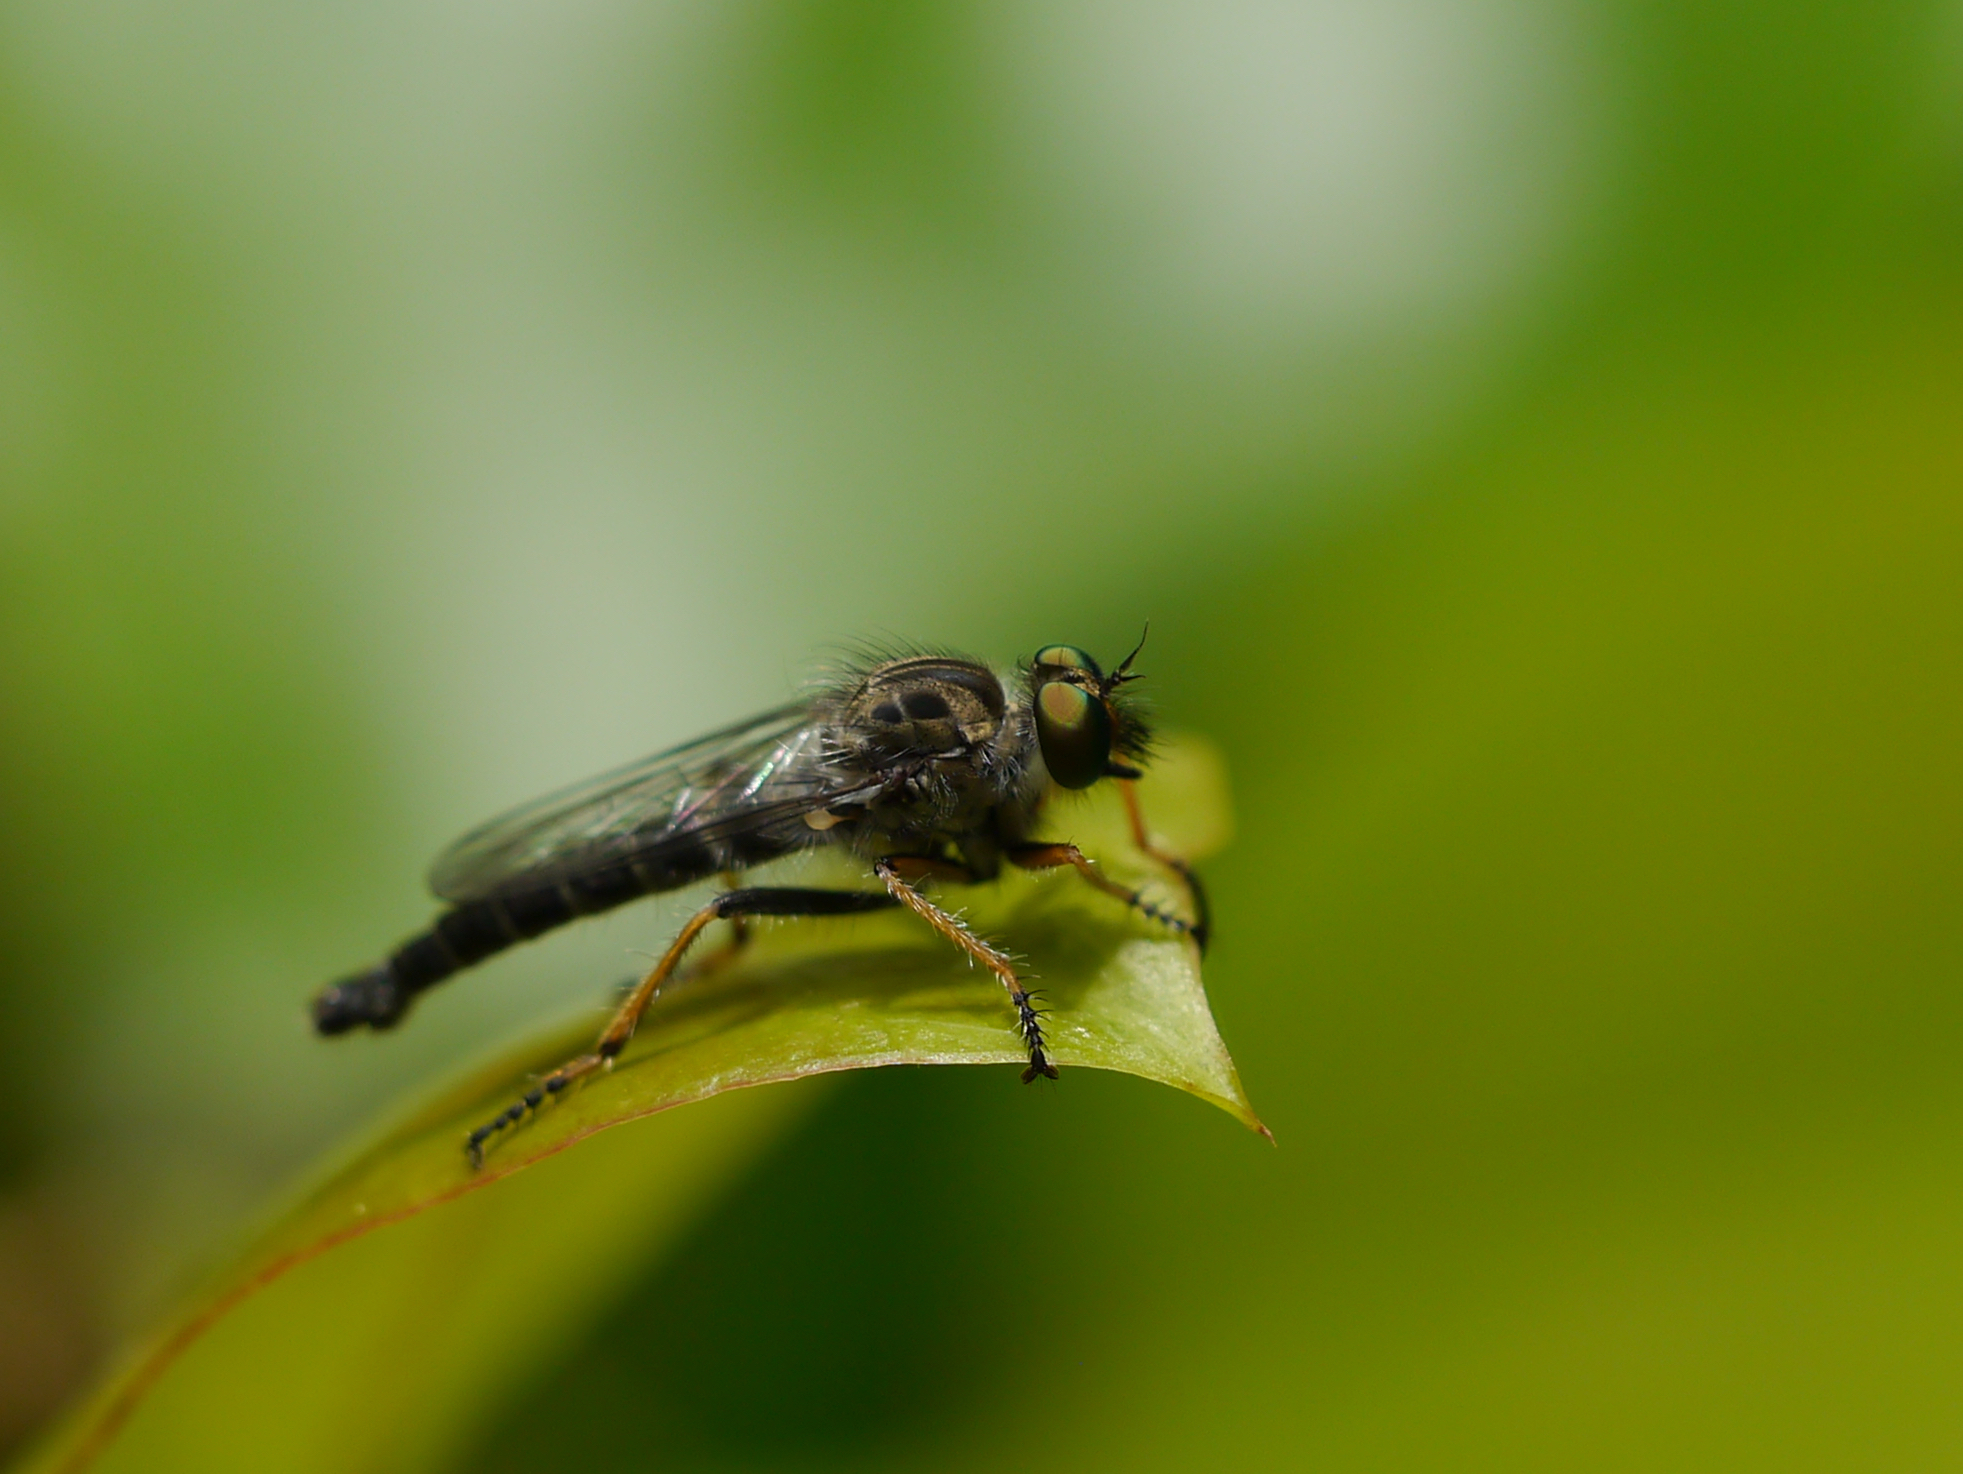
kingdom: Animalia
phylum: Arthropoda
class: Insecta
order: Diptera
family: Asilidae
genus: Asilus
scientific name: Asilus flavofemoratus
